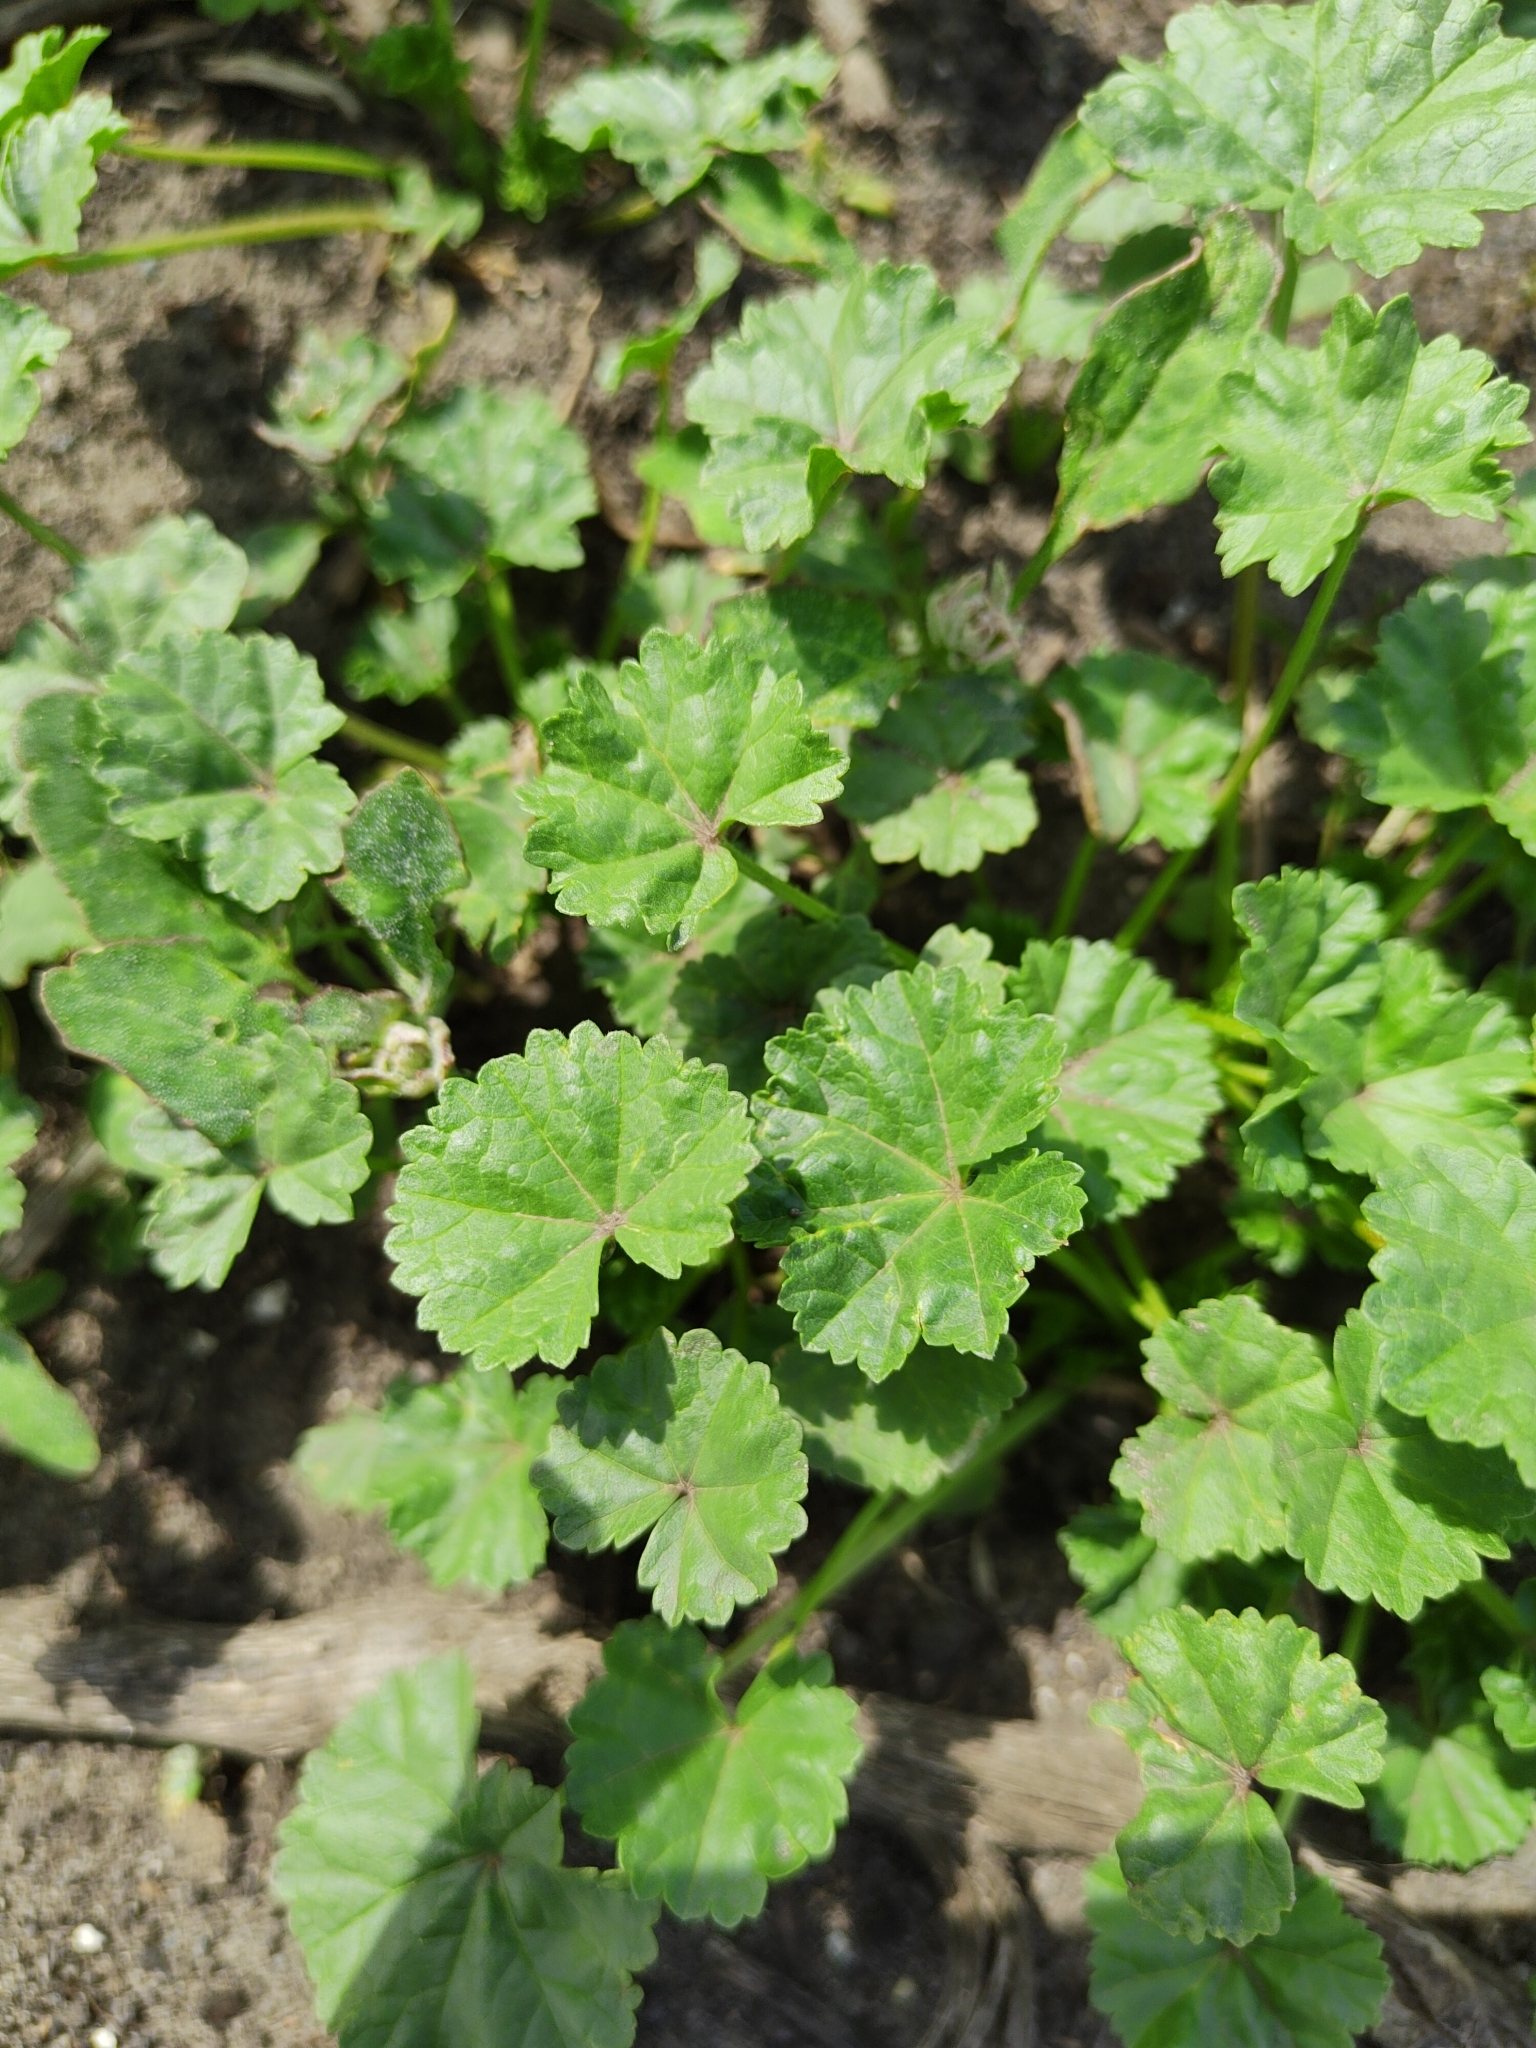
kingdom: Plantae
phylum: Tracheophyta
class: Magnoliopsida
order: Malvales
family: Malvaceae
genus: Malva
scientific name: Malva pusilla
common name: Small mallow
